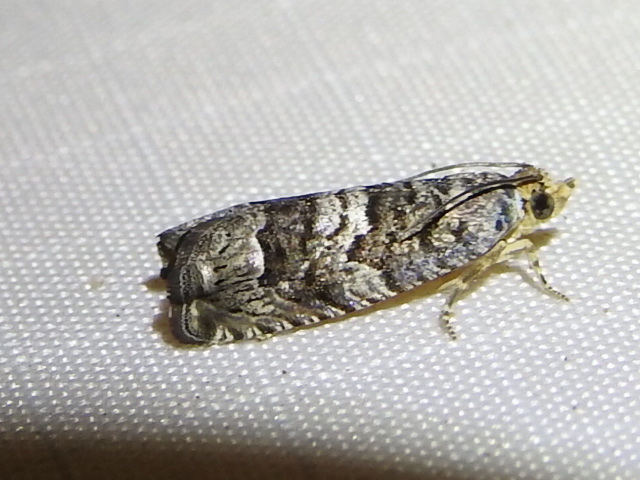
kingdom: Animalia
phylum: Arthropoda
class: Insecta
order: Lepidoptera
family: Tortricidae
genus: Cydia
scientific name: Cydia membrosa
